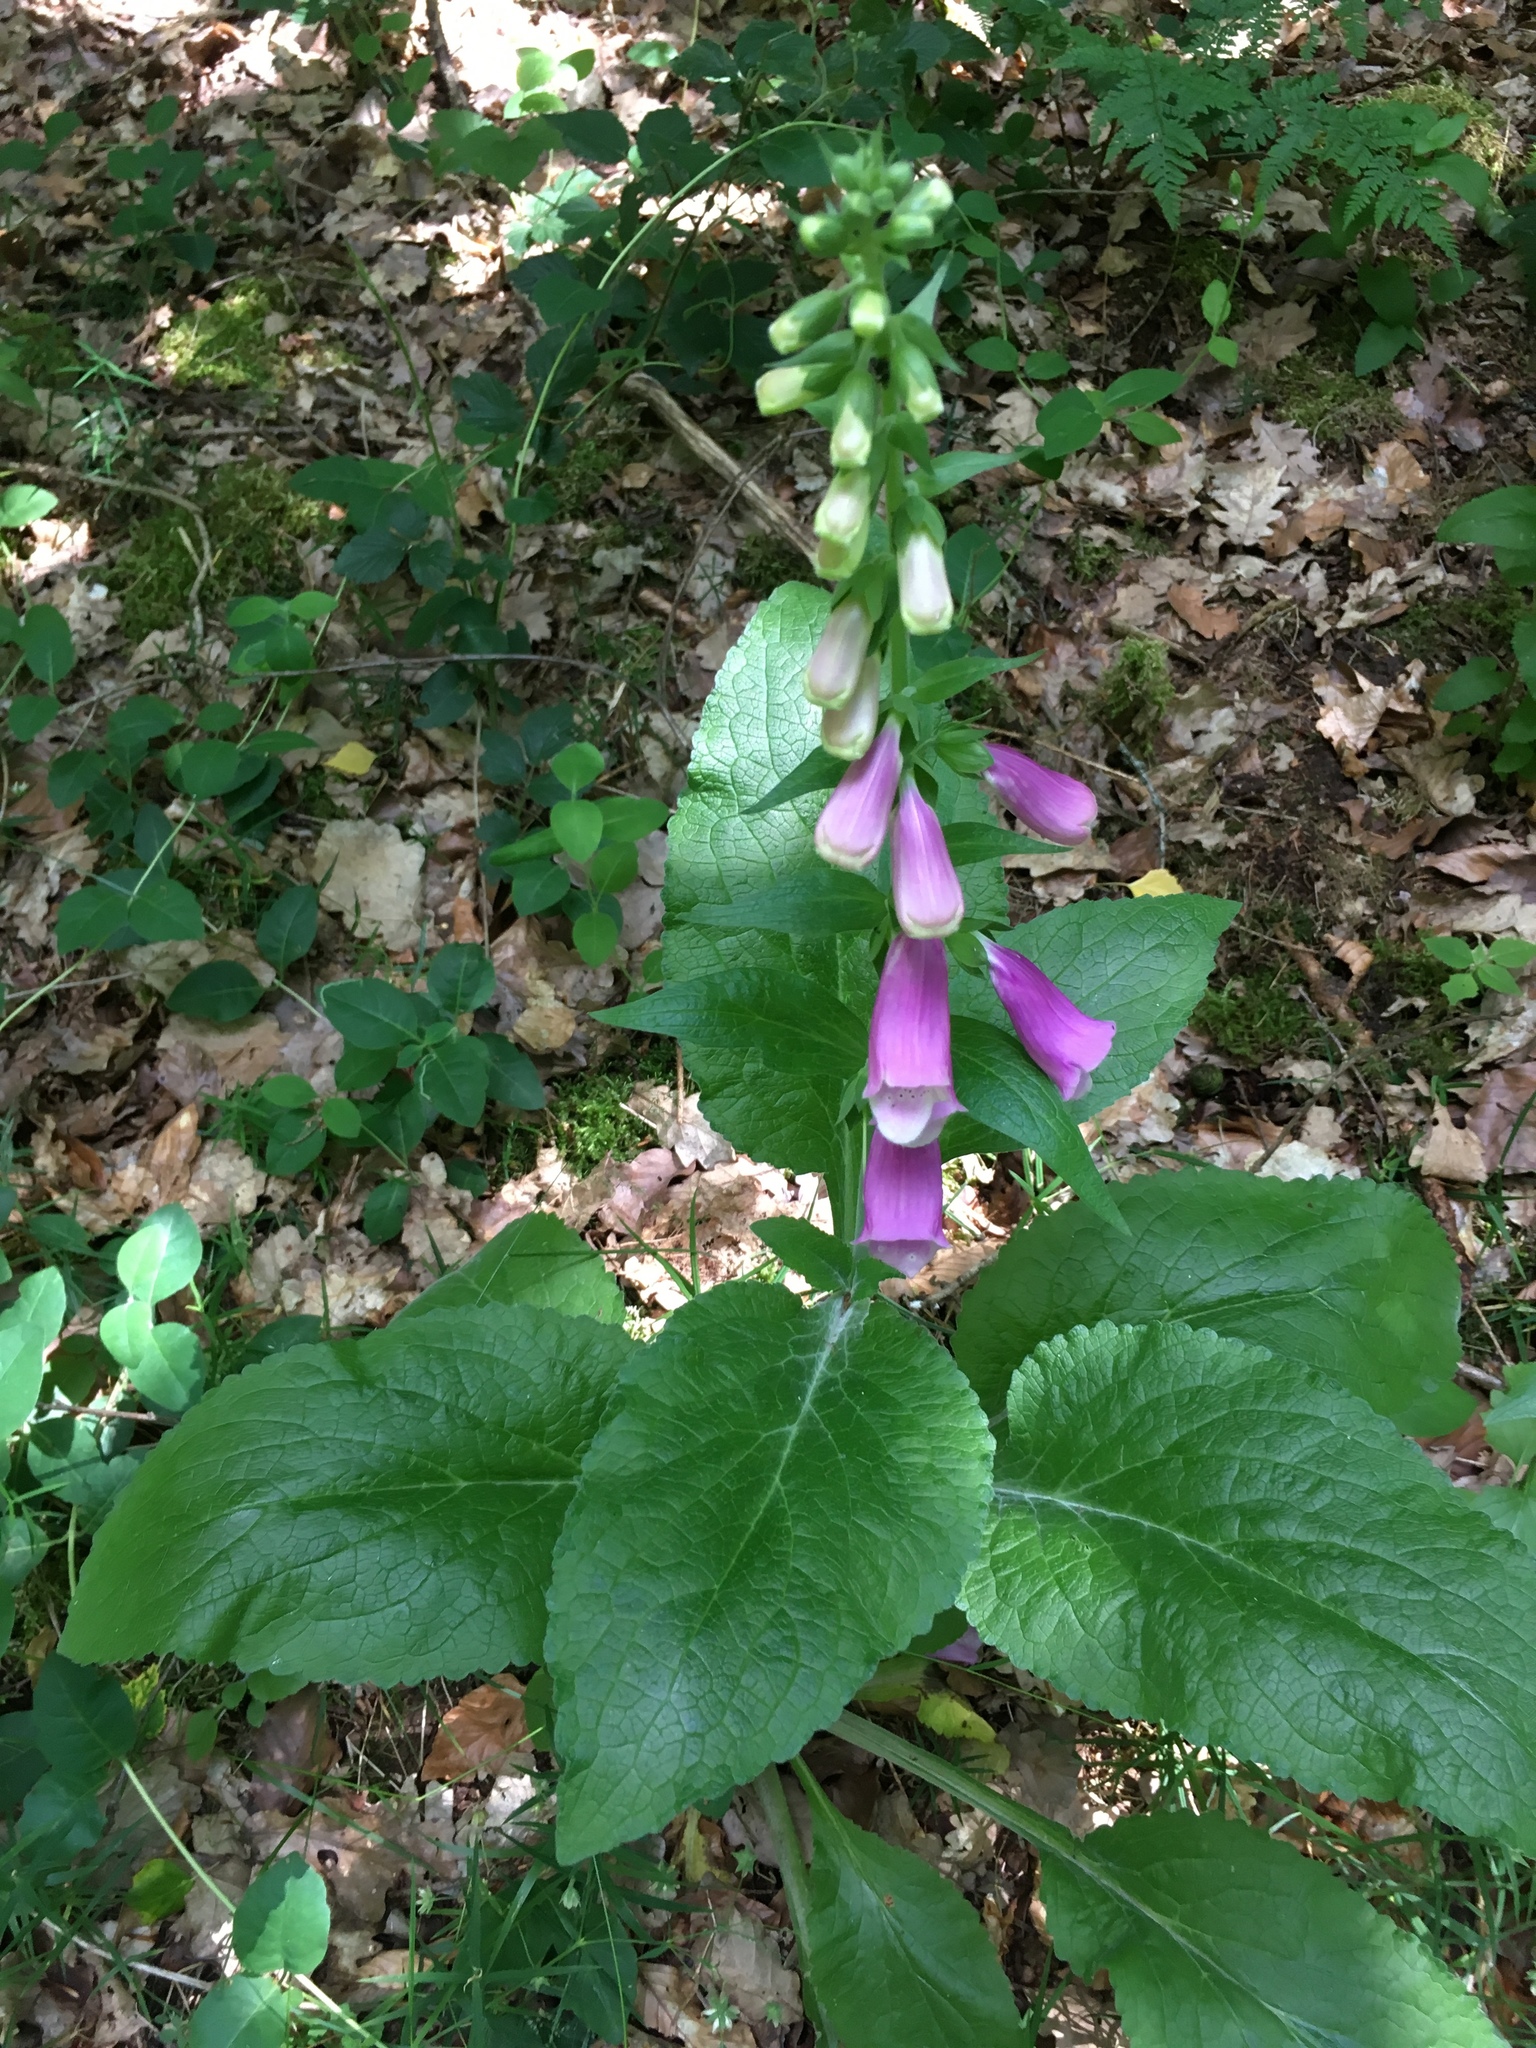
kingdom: Plantae
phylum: Tracheophyta
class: Magnoliopsida
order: Lamiales
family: Plantaginaceae
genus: Digitalis
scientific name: Digitalis purpurea
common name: Foxglove
